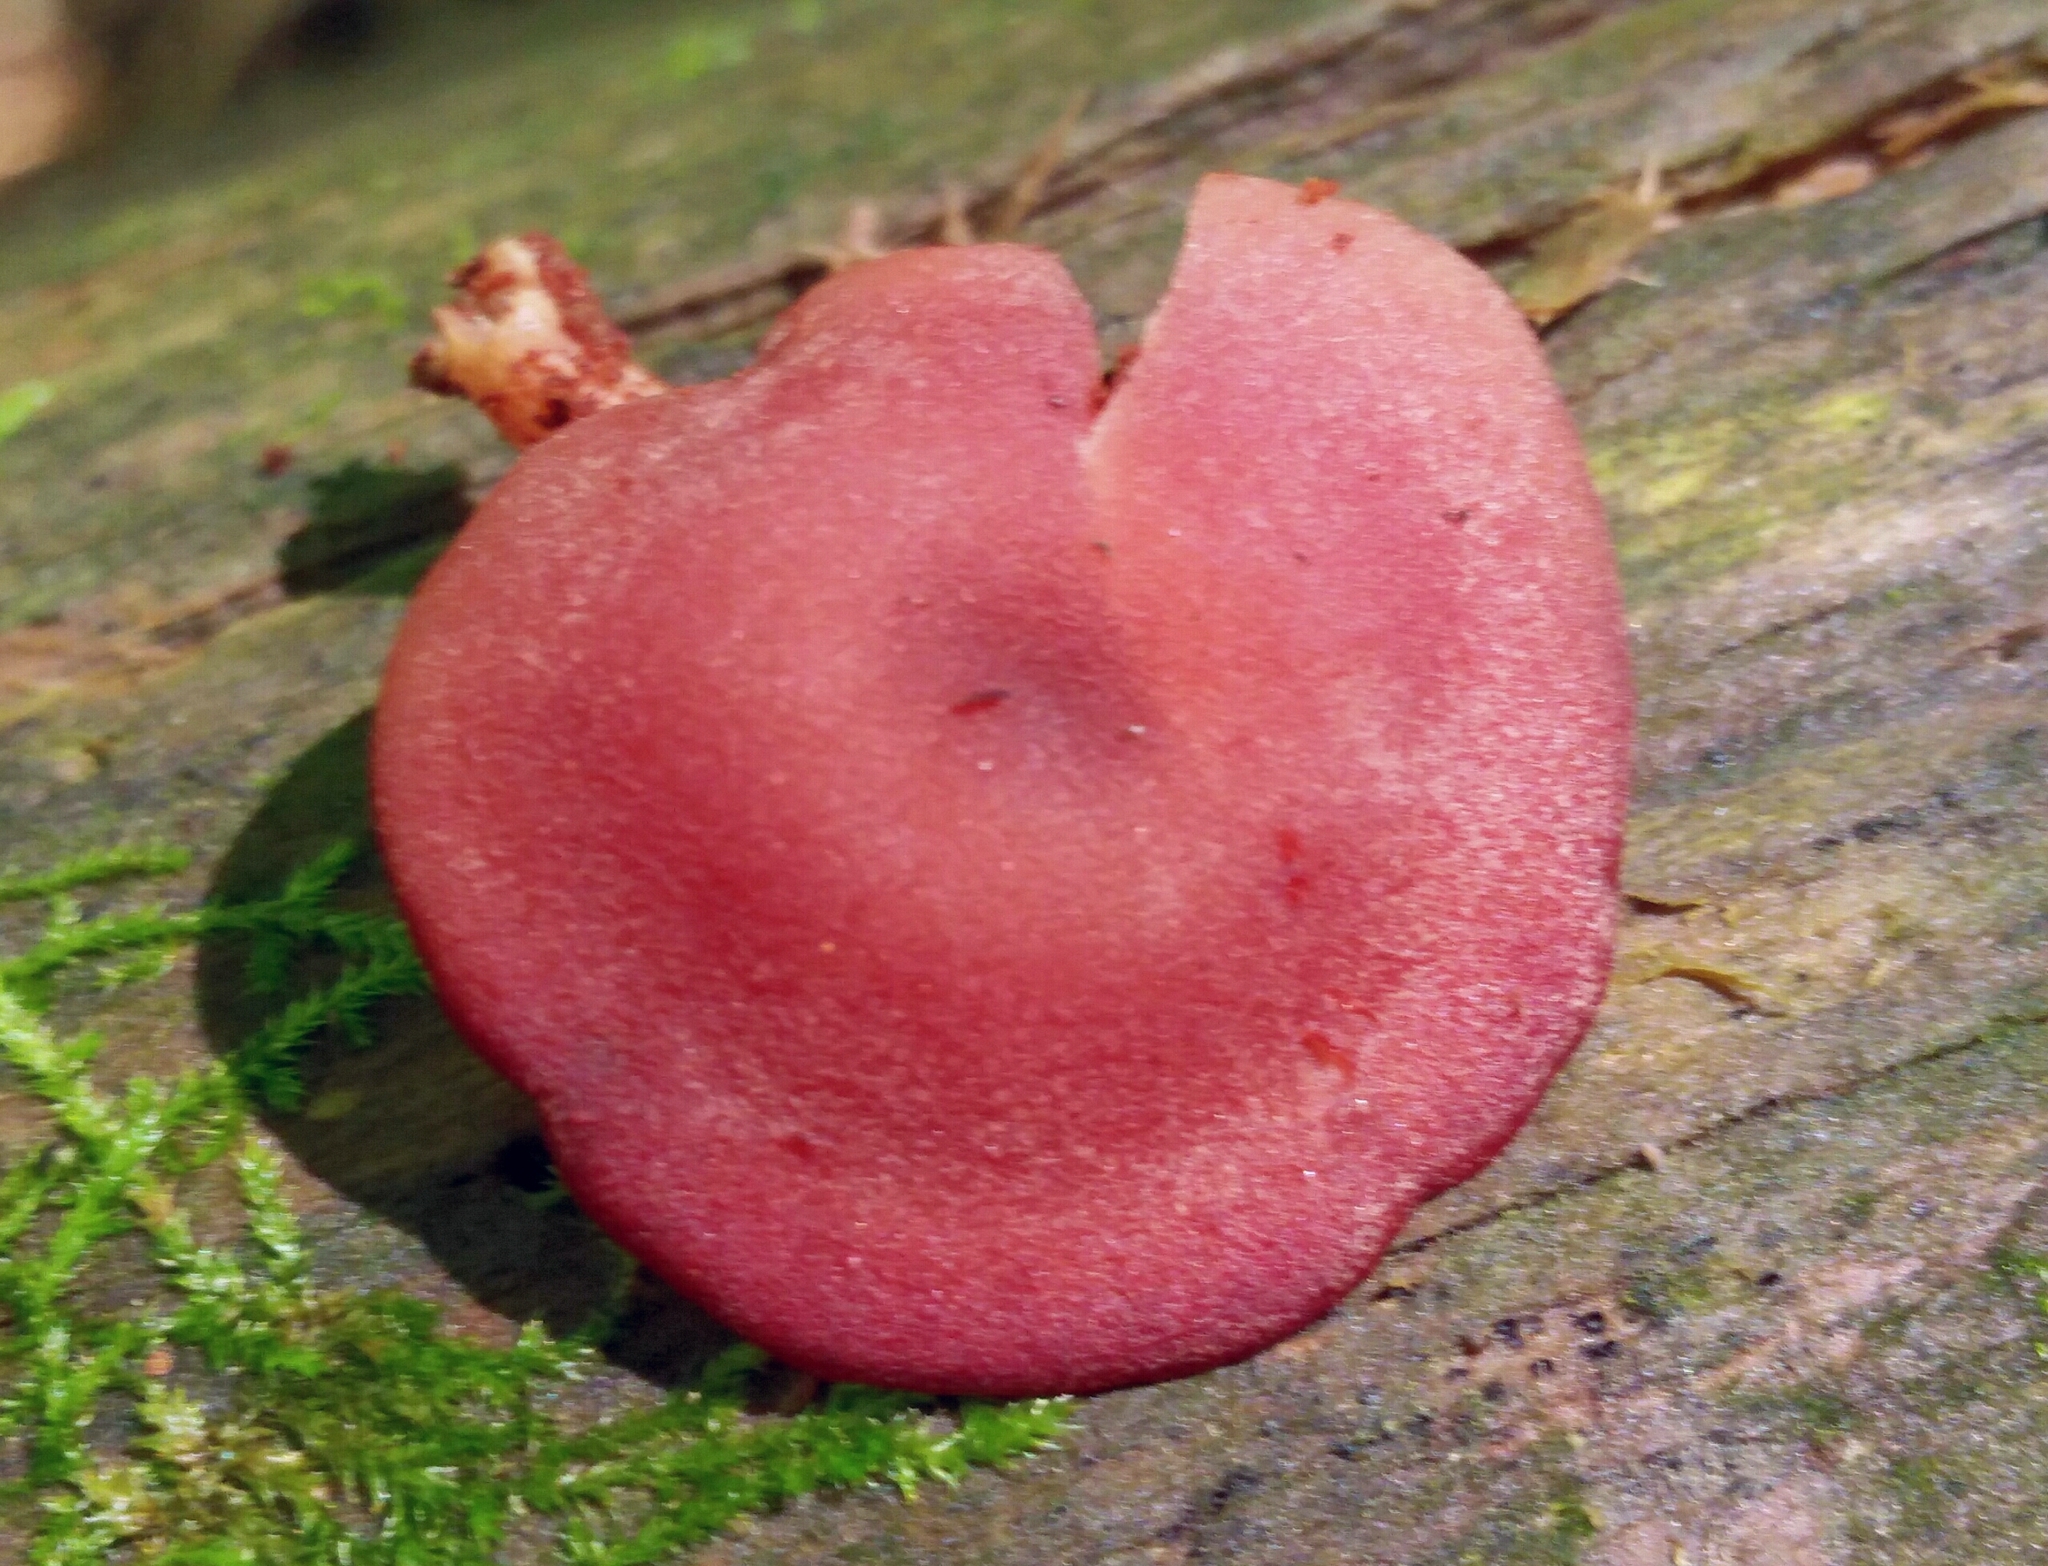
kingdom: Fungi
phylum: Basidiomycota
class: Agaricomycetes
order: Agaricales
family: Callistosporiaceae
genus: Callistosporium
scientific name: Callistosporium purpureomarginatum
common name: Purple-edged lute
